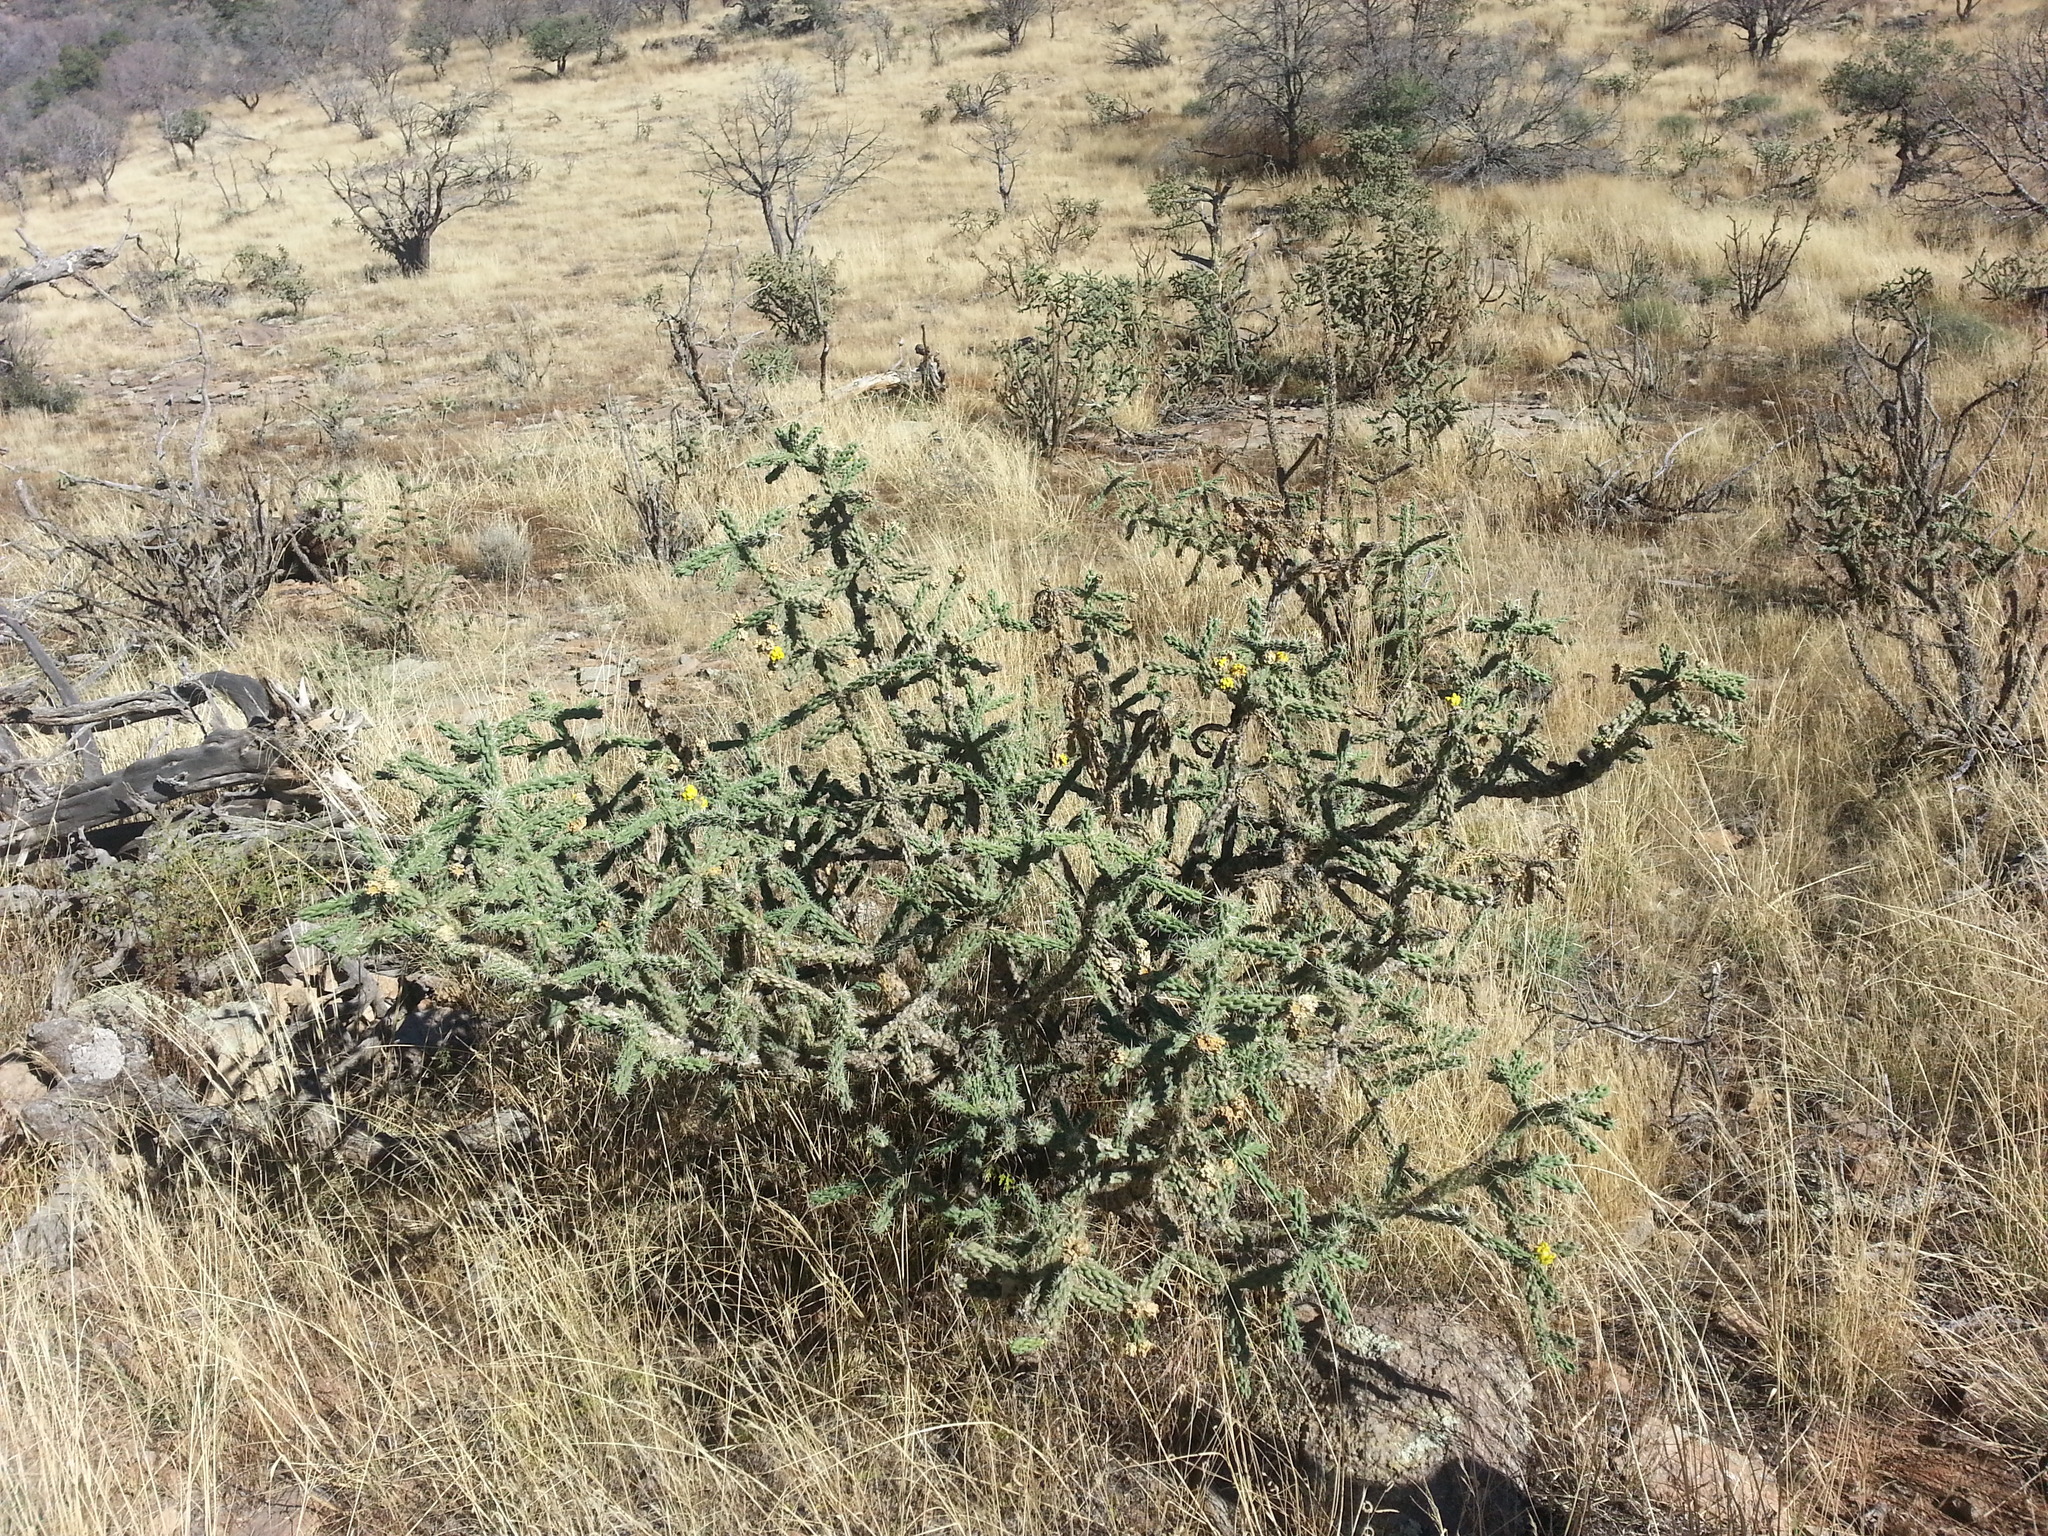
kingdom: Plantae
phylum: Tracheophyta
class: Magnoliopsida
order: Caryophyllales
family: Cactaceae
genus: Cylindropuntia
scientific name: Cylindropuntia imbricata
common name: Candelabrum cactus
